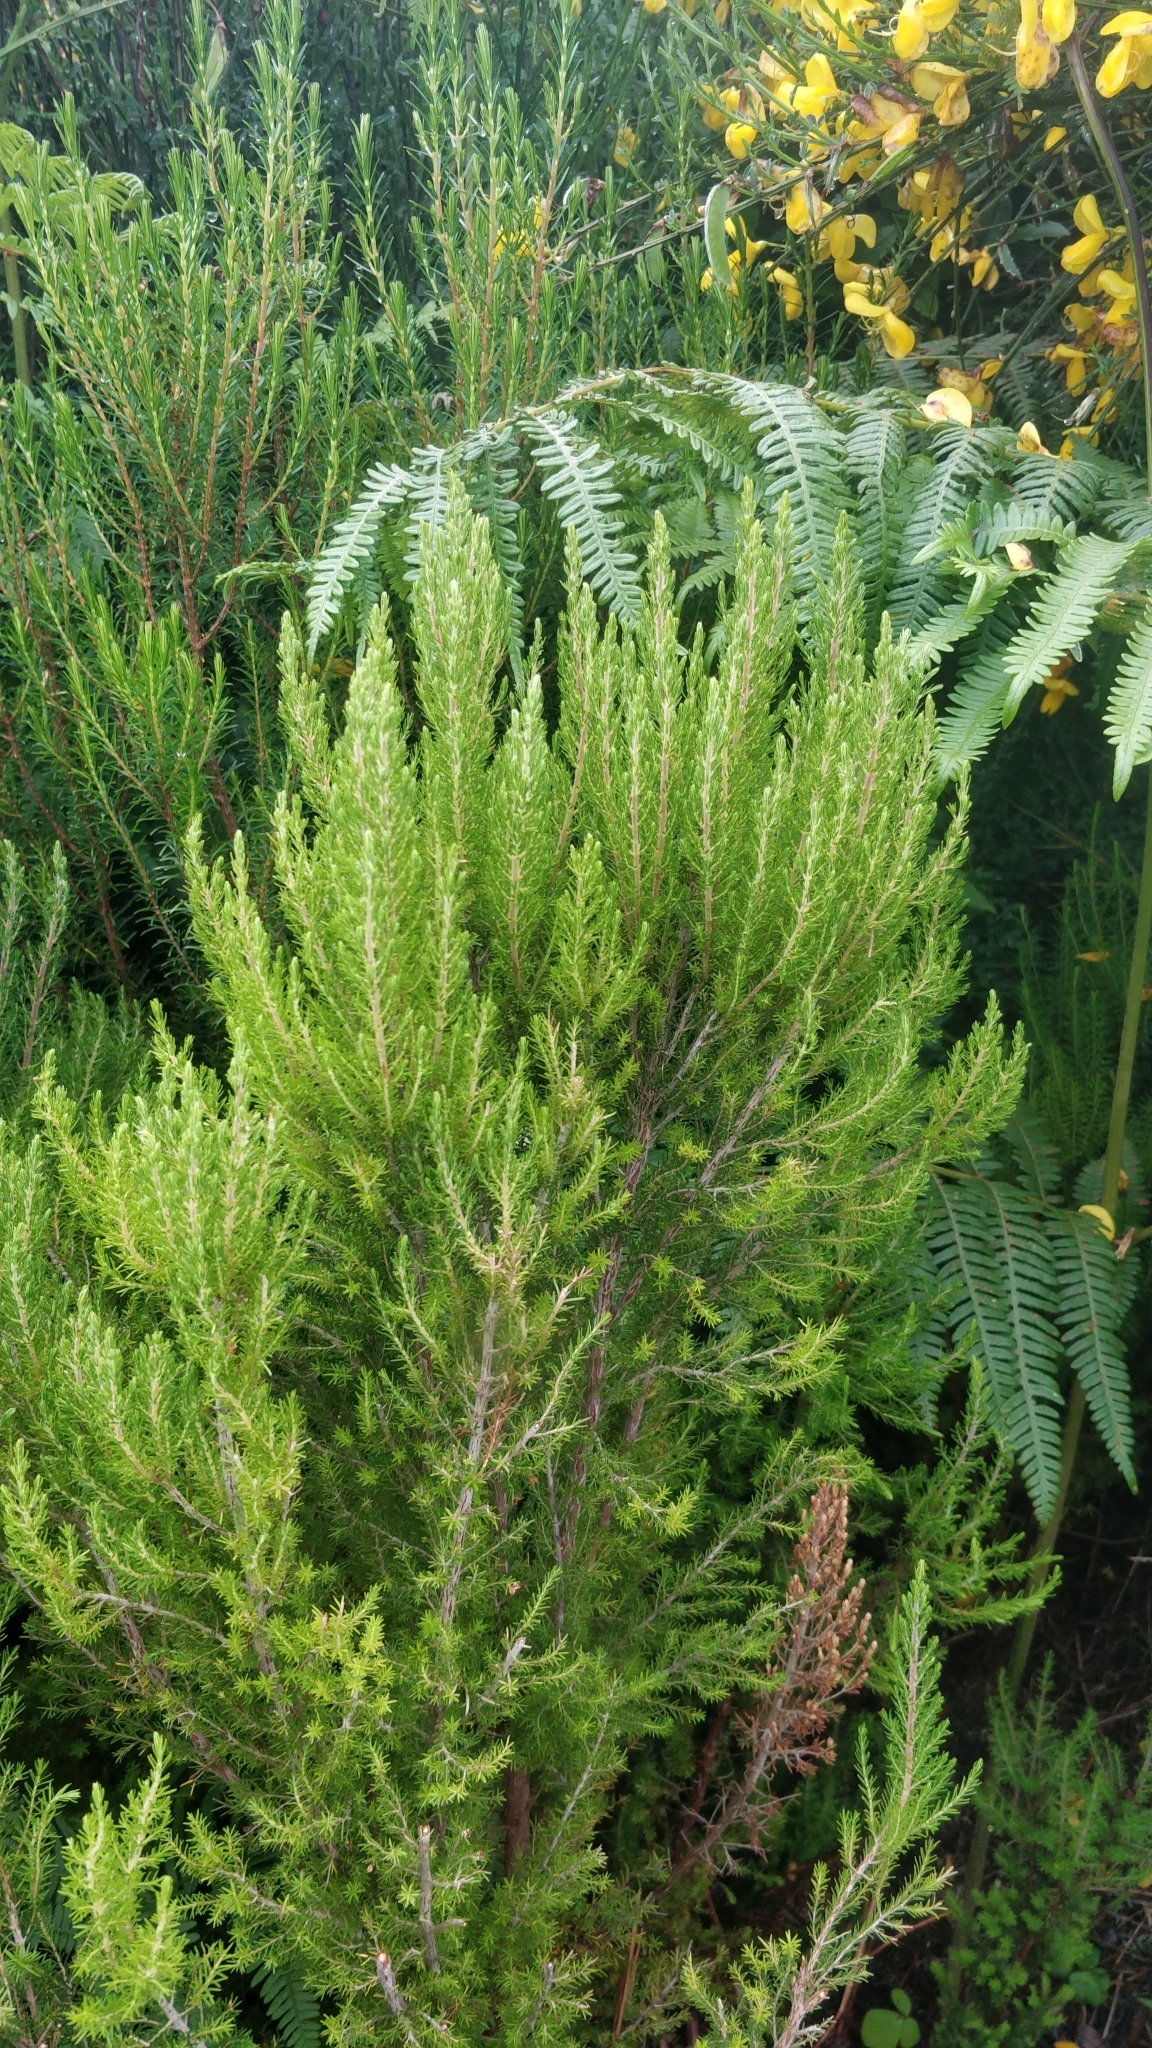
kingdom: Plantae
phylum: Tracheophyta
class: Magnoliopsida
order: Ericales
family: Ericaceae
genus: Erica
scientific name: Erica canariensis
